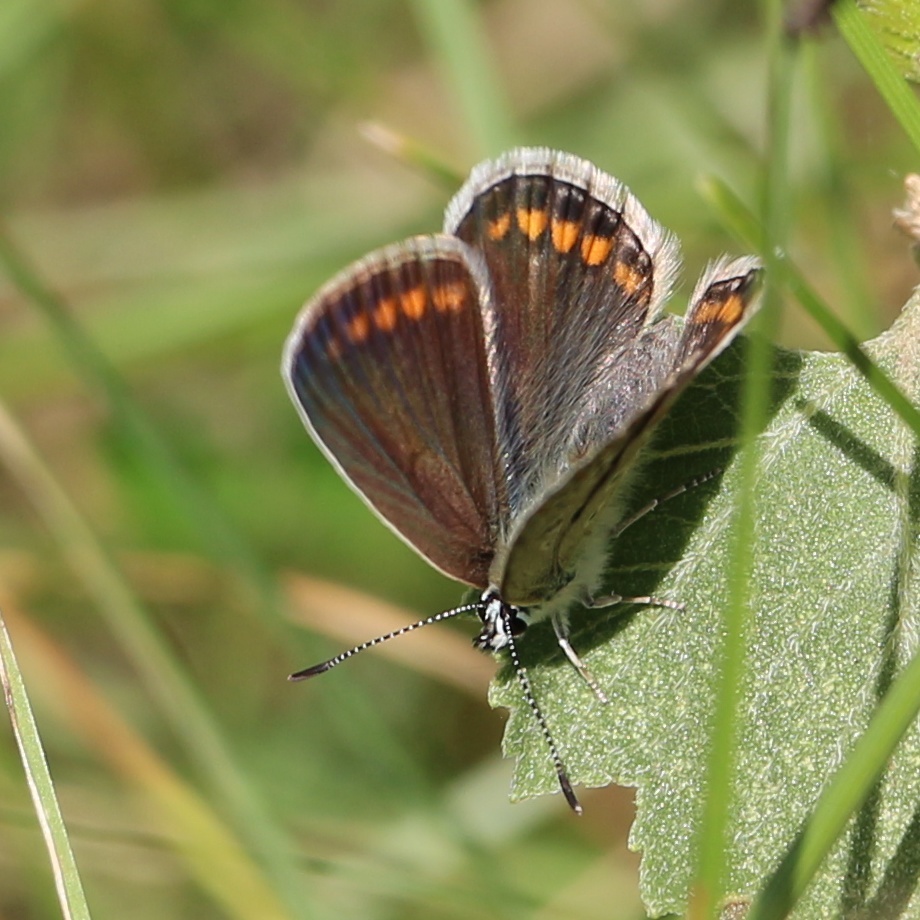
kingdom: Animalia
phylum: Arthropoda
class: Insecta
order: Lepidoptera
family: Lycaenidae
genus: Polyommatus
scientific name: Polyommatus icarus
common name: Common blue
